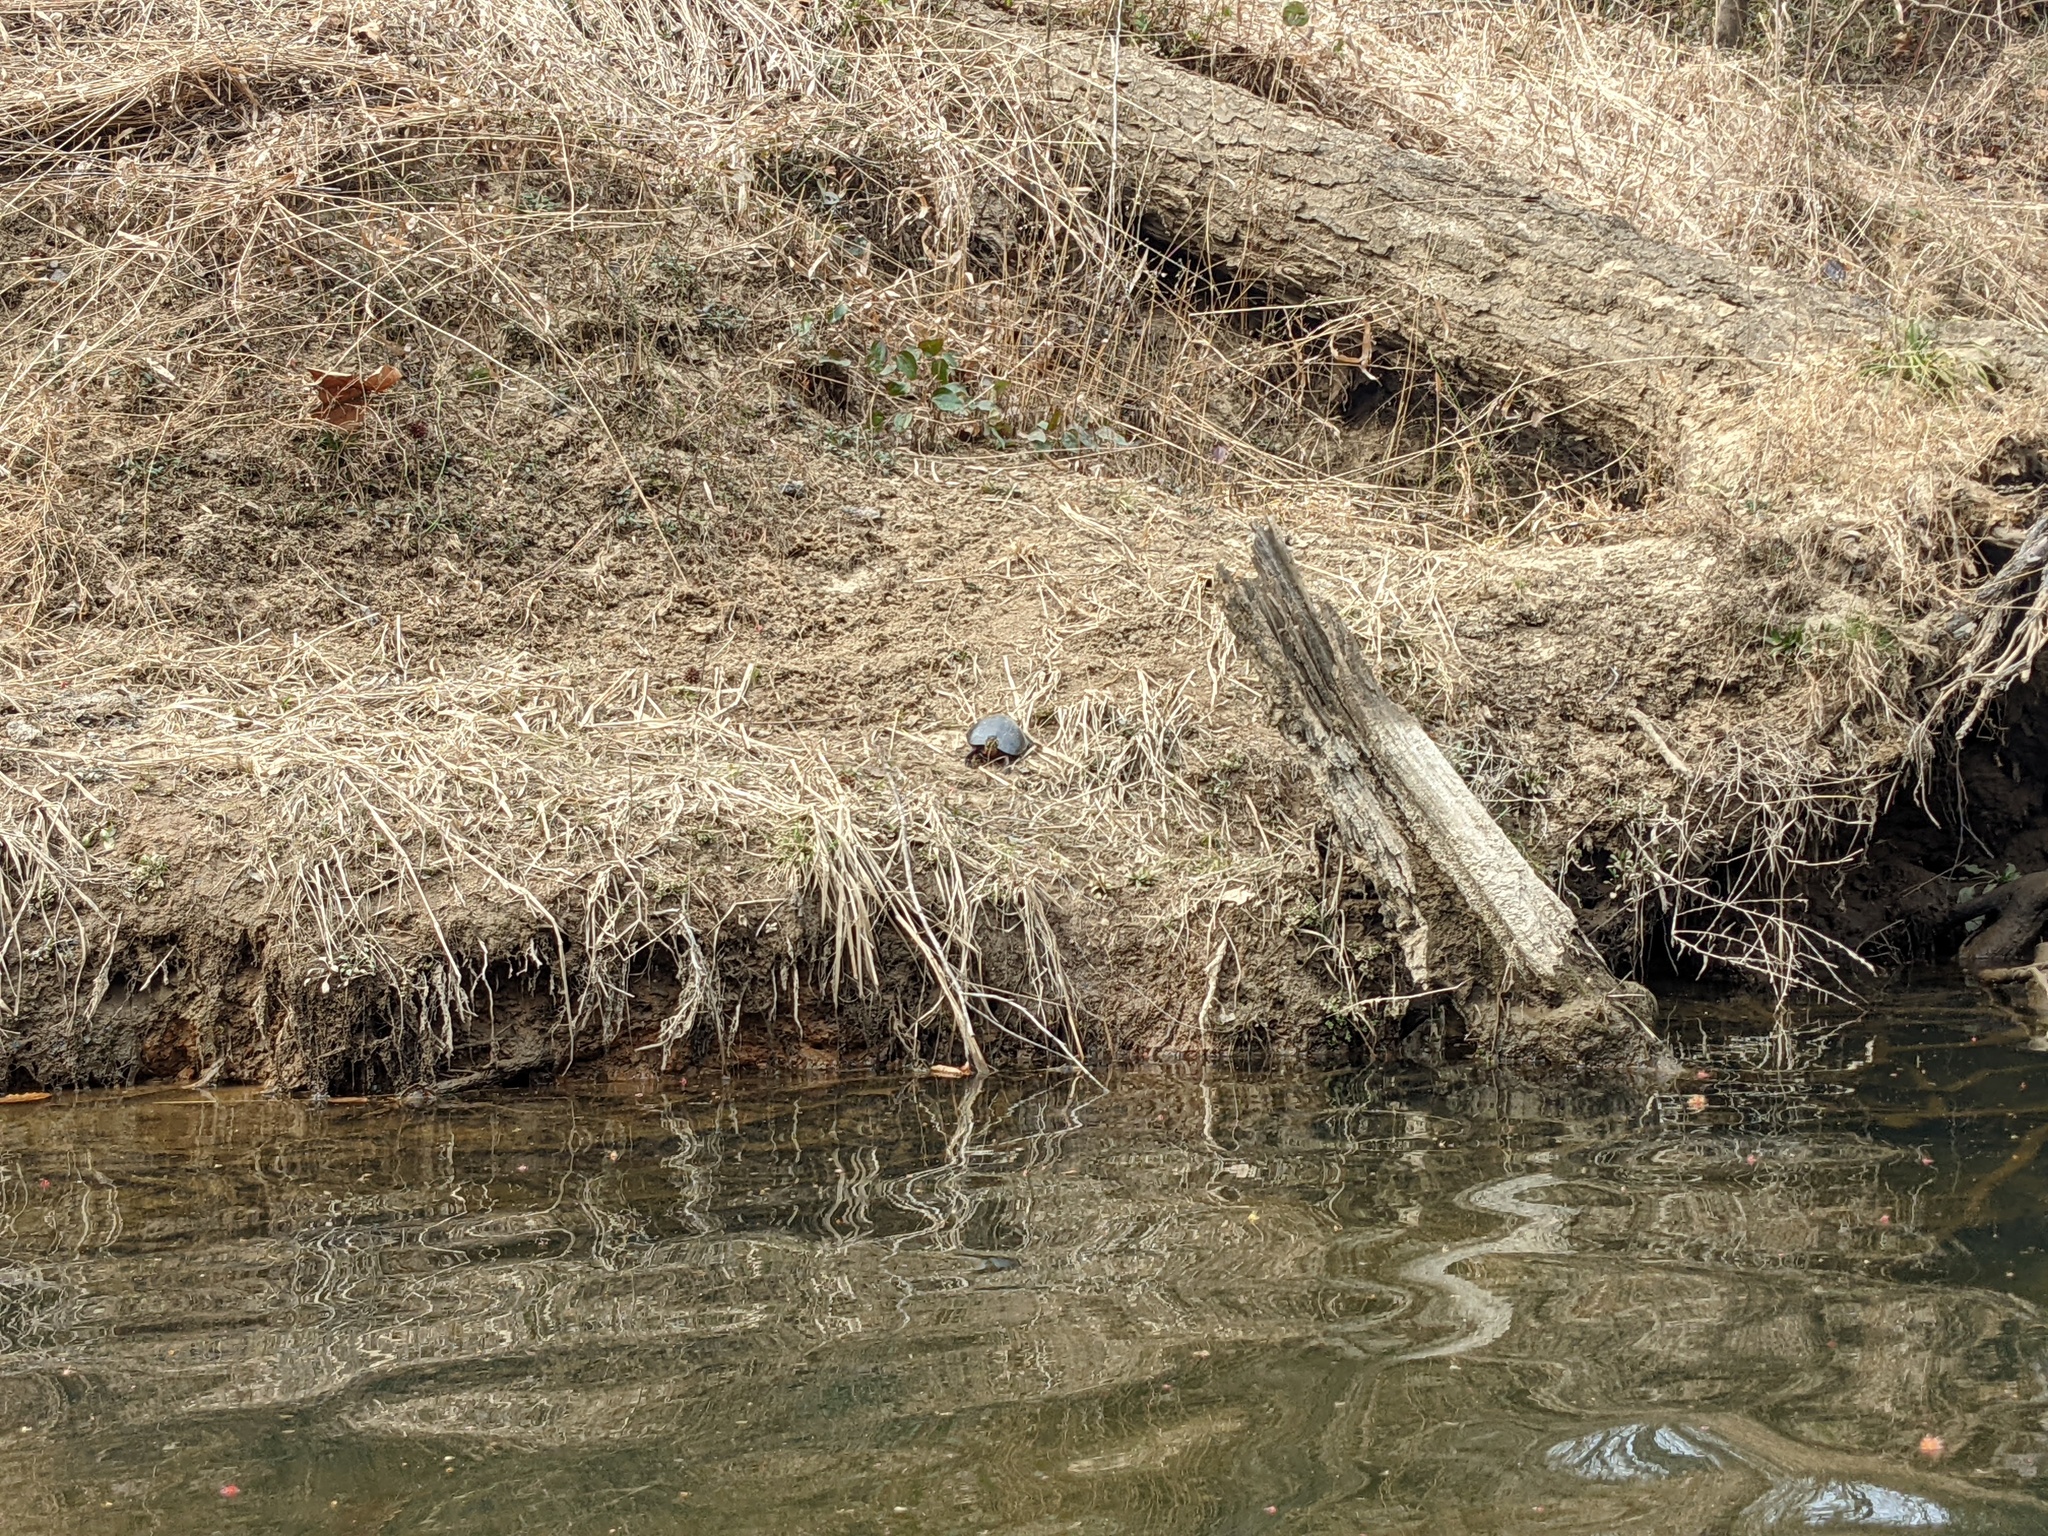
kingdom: Animalia
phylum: Chordata
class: Testudines
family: Emydidae
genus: Chrysemys
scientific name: Chrysemys picta
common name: Painted turtle
